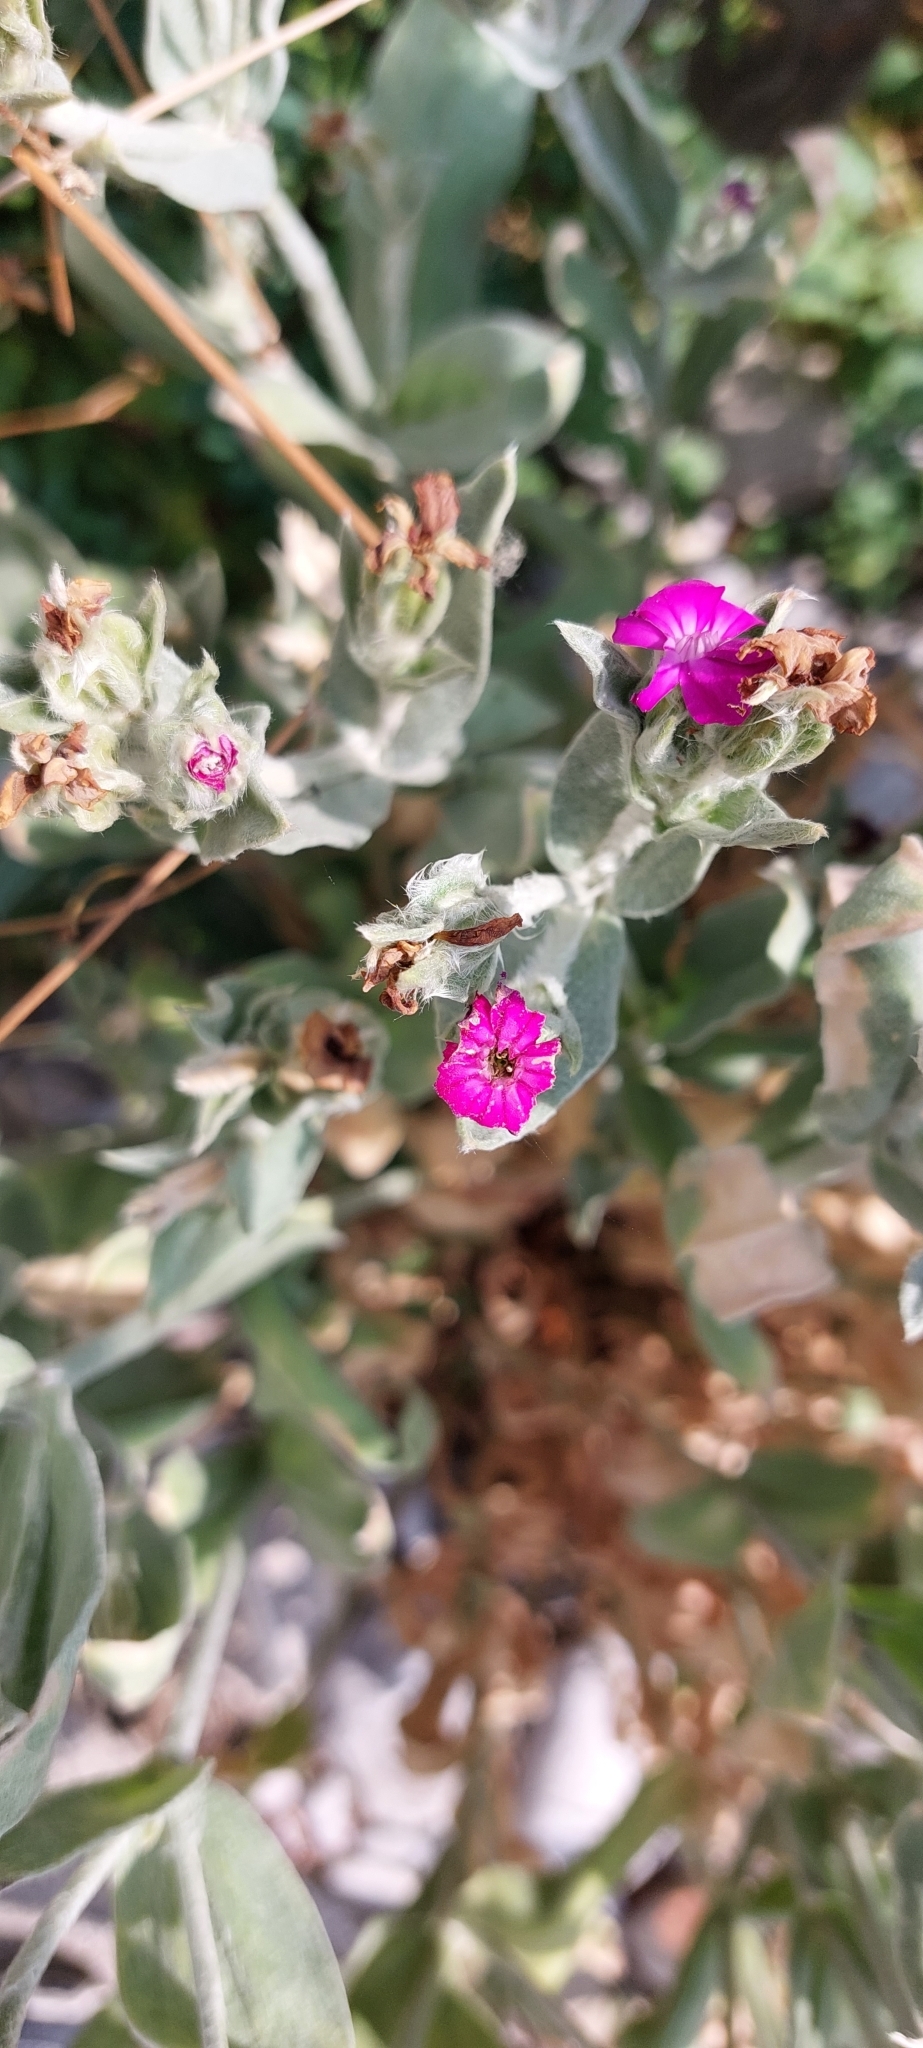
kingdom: Plantae
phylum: Tracheophyta
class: Magnoliopsida
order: Caryophyllales
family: Caryophyllaceae
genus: Silene
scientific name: Silene coronaria
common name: Rose campion
